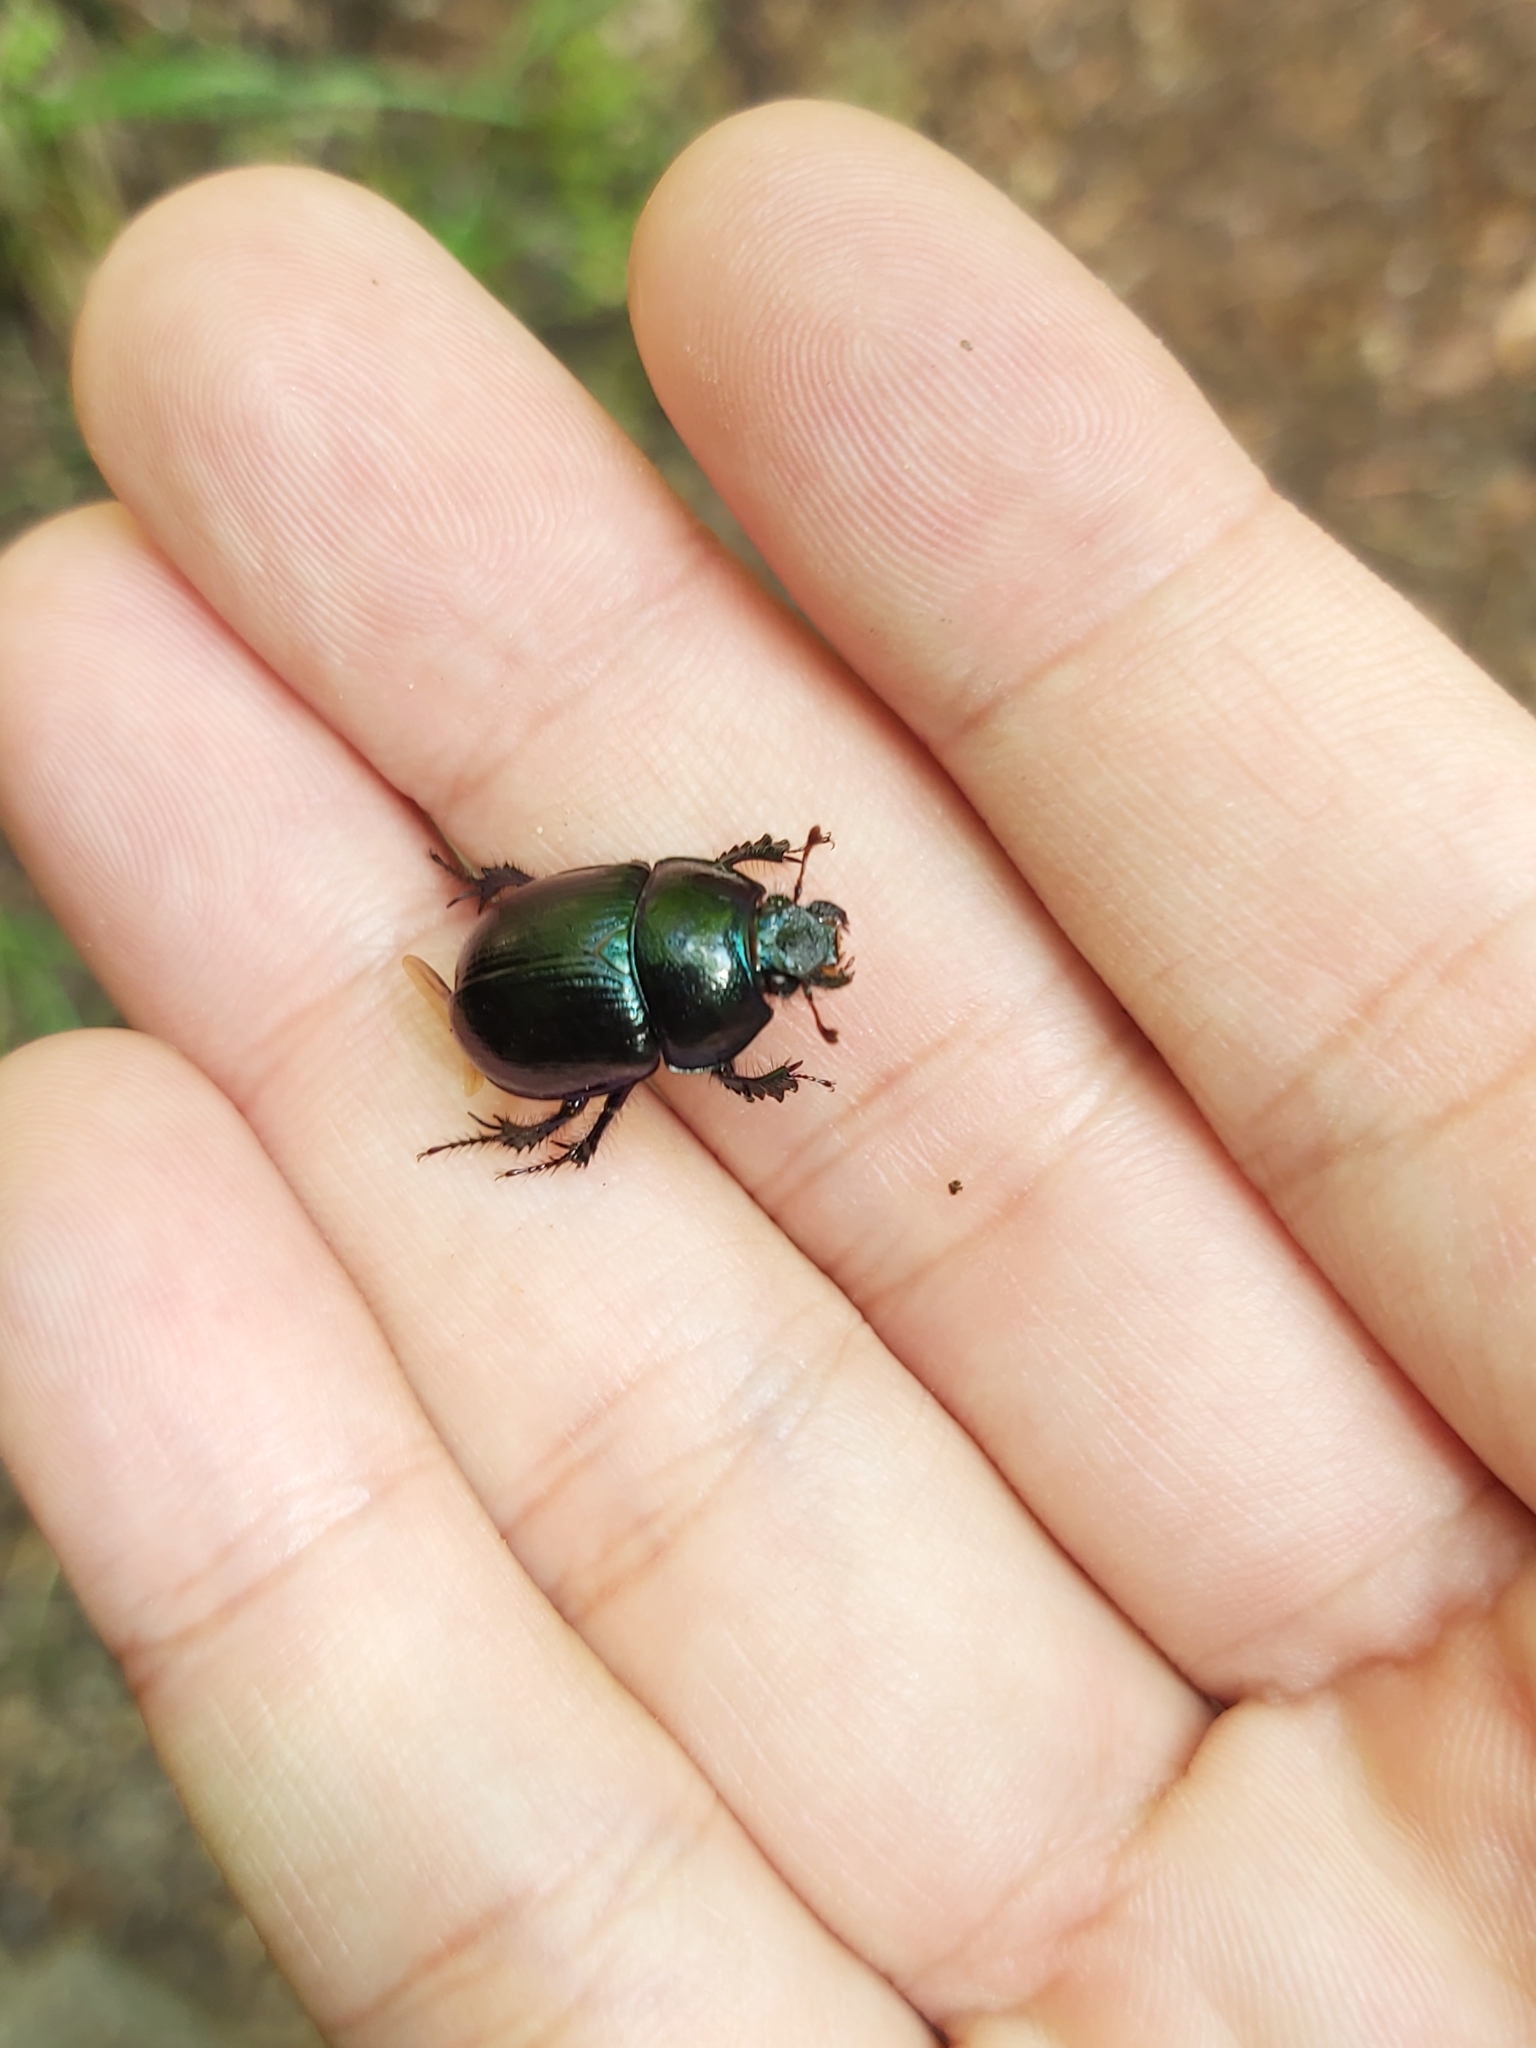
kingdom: Animalia
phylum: Arthropoda
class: Insecta
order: Coleoptera
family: Geotrupidae
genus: Anoplotrupes
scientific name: Anoplotrupes stercorosus
